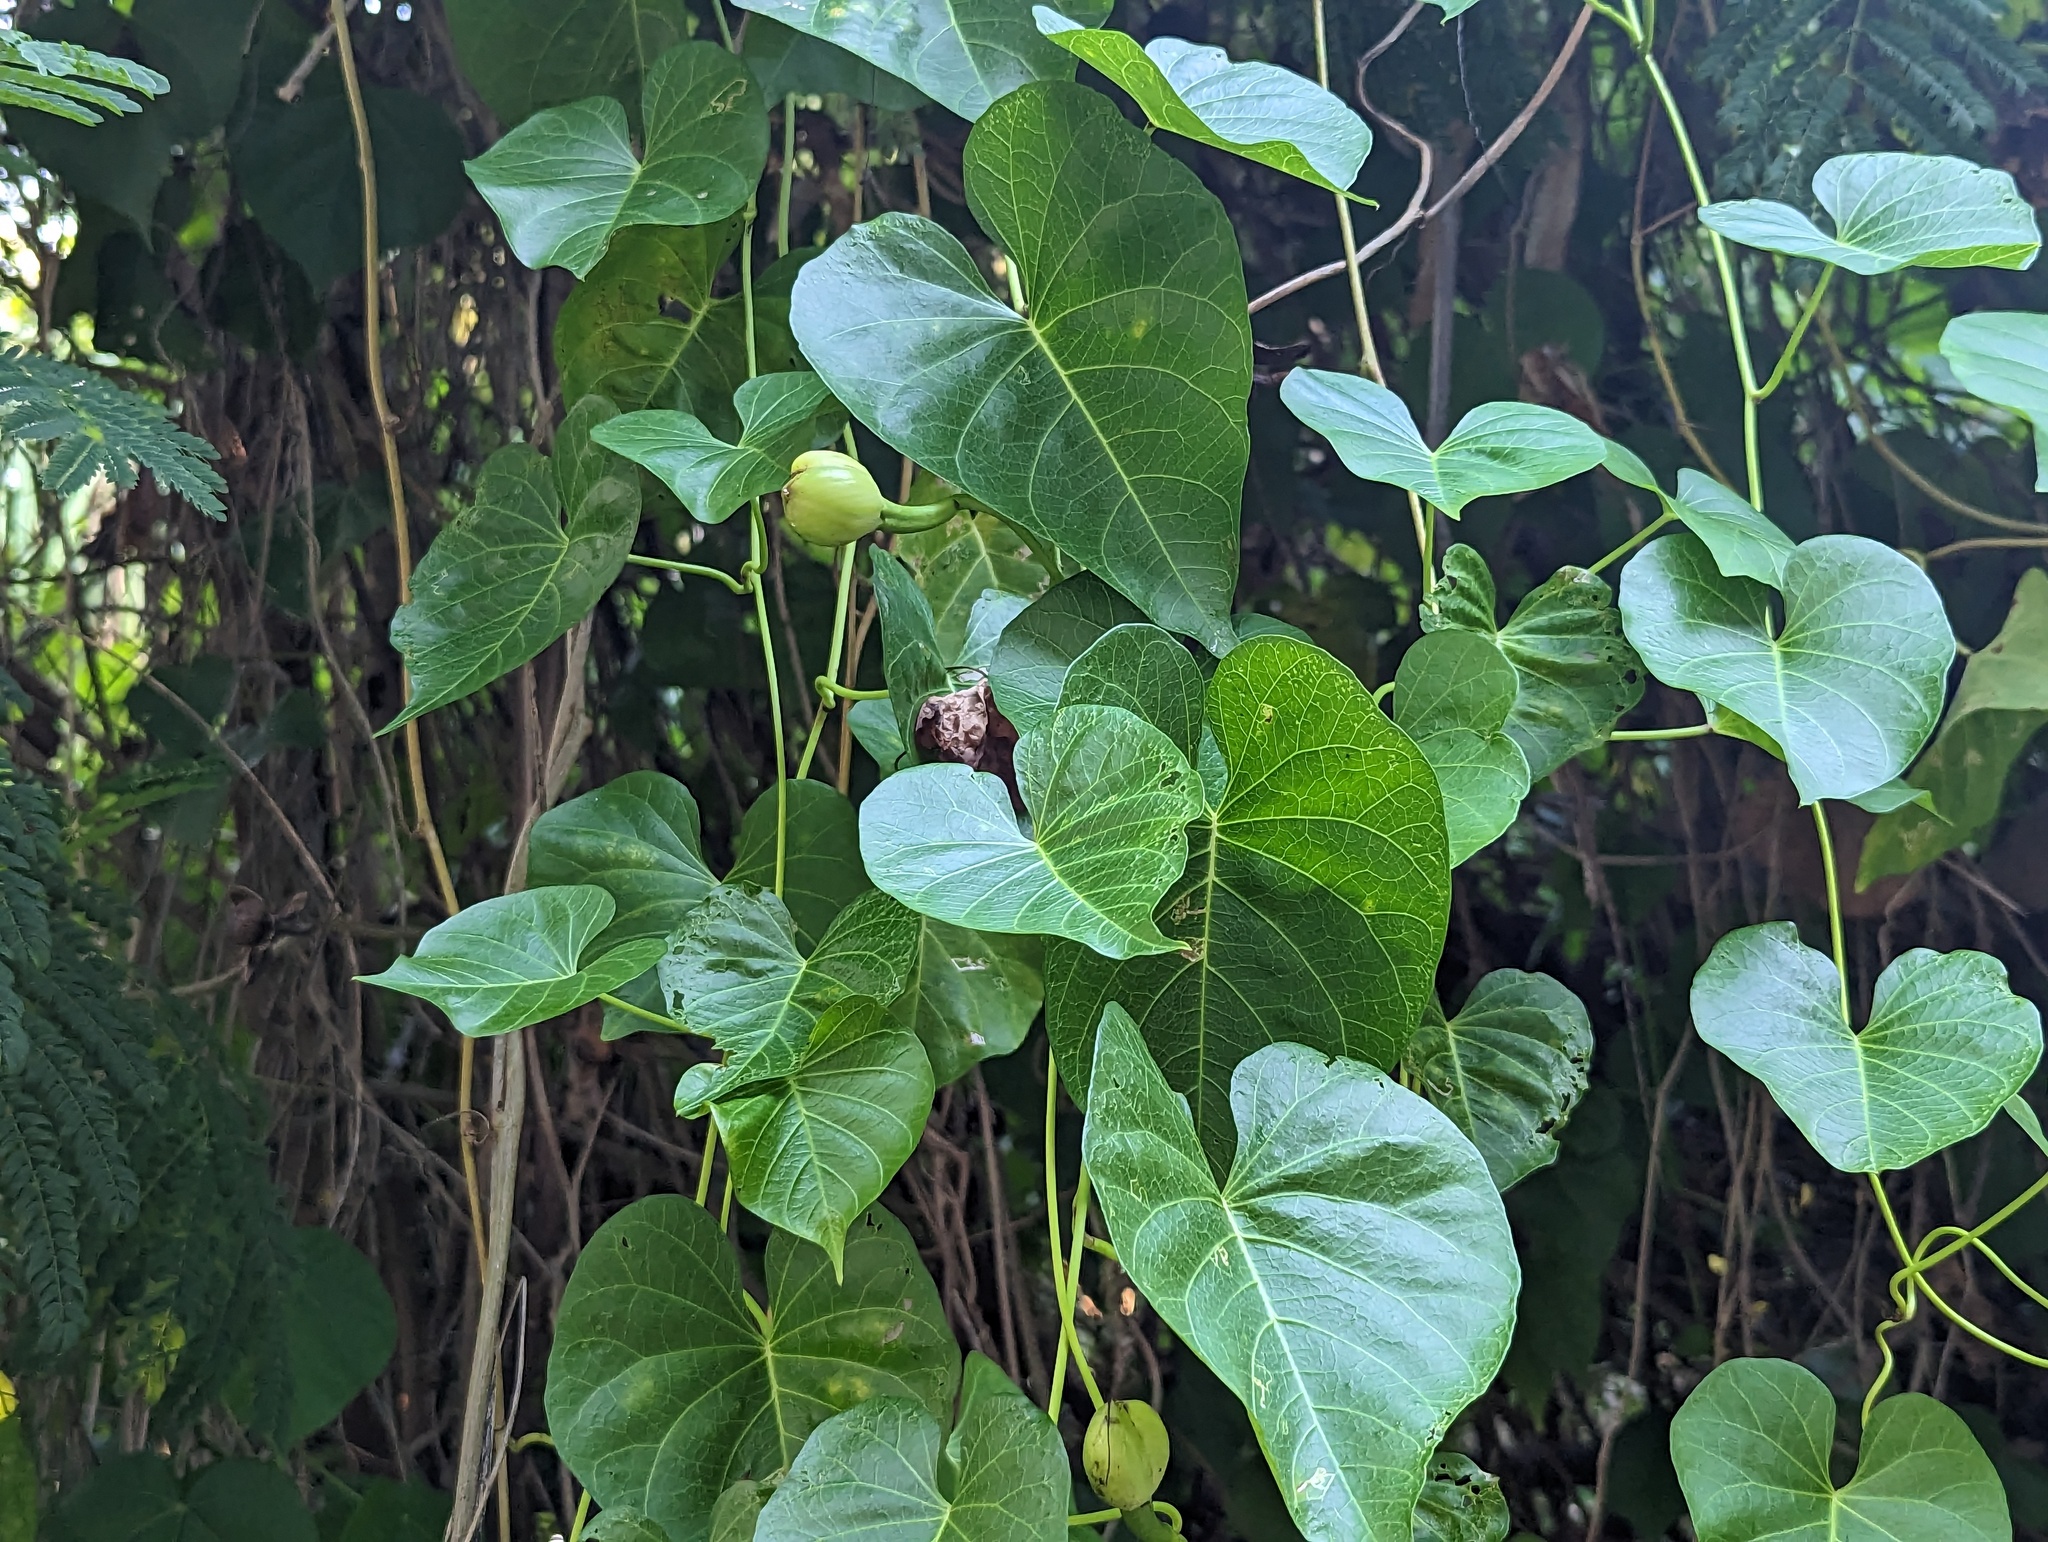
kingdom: Plantae
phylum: Tracheophyta
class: Magnoliopsida
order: Solanales
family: Convolvulaceae
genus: Ipomoea
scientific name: Ipomoea violacea
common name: Beach moonflower
